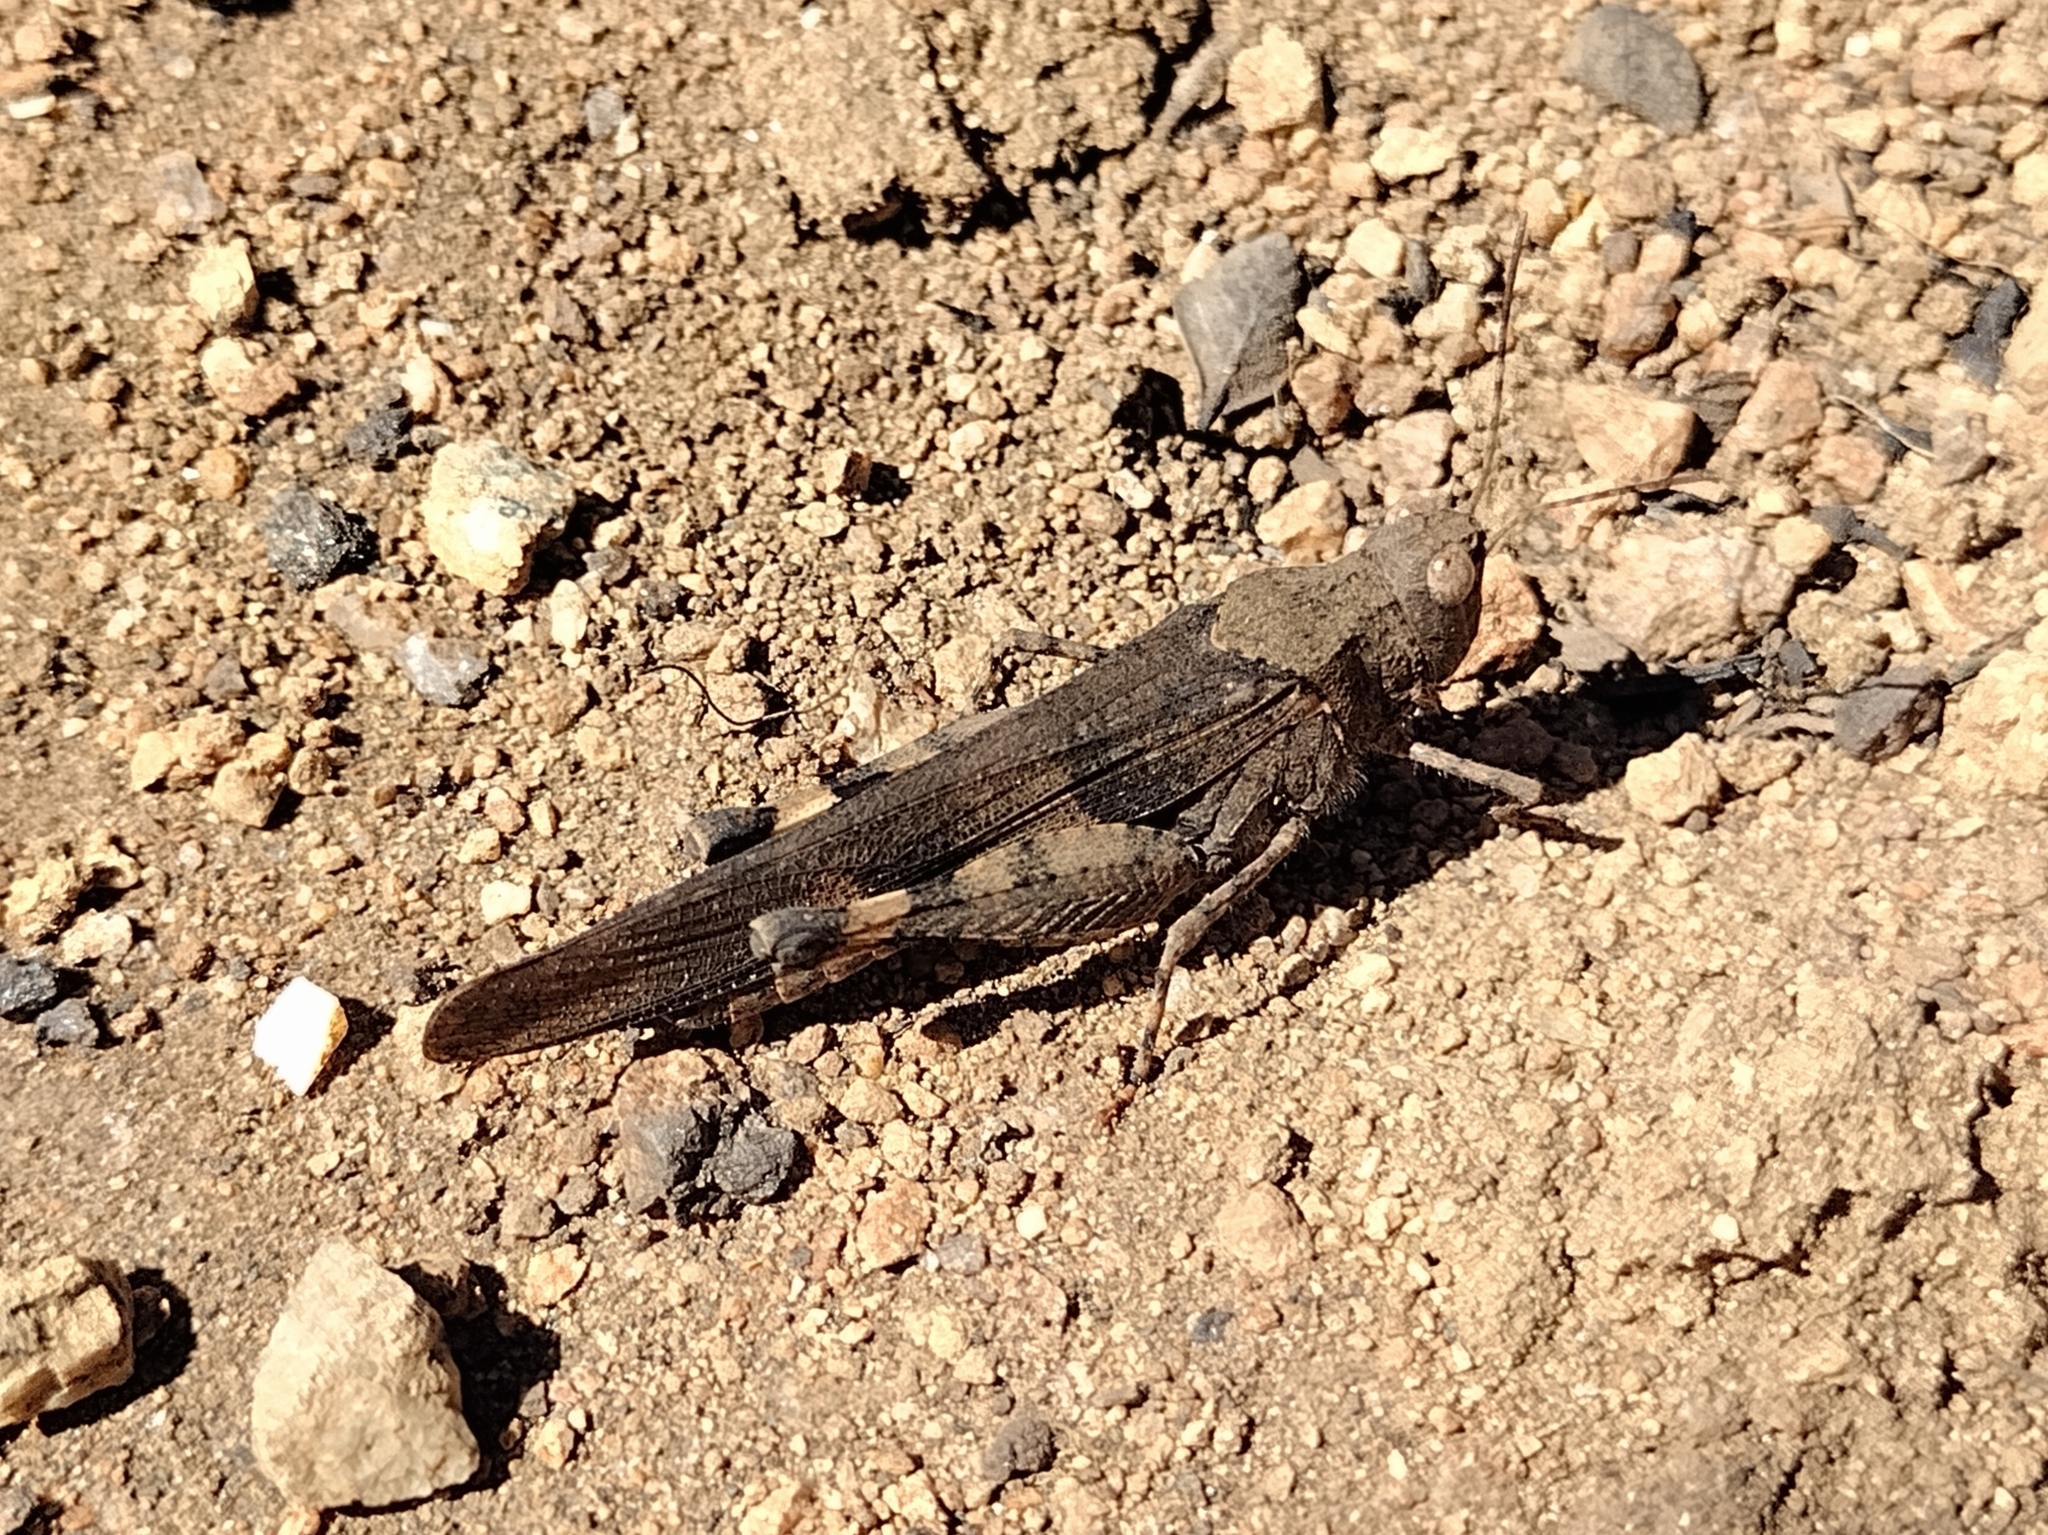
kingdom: Animalia
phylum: Arthropoda
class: Insecta
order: Orthoptera
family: Acrididae
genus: Trimerotropis
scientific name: Trimerotropis fontana
